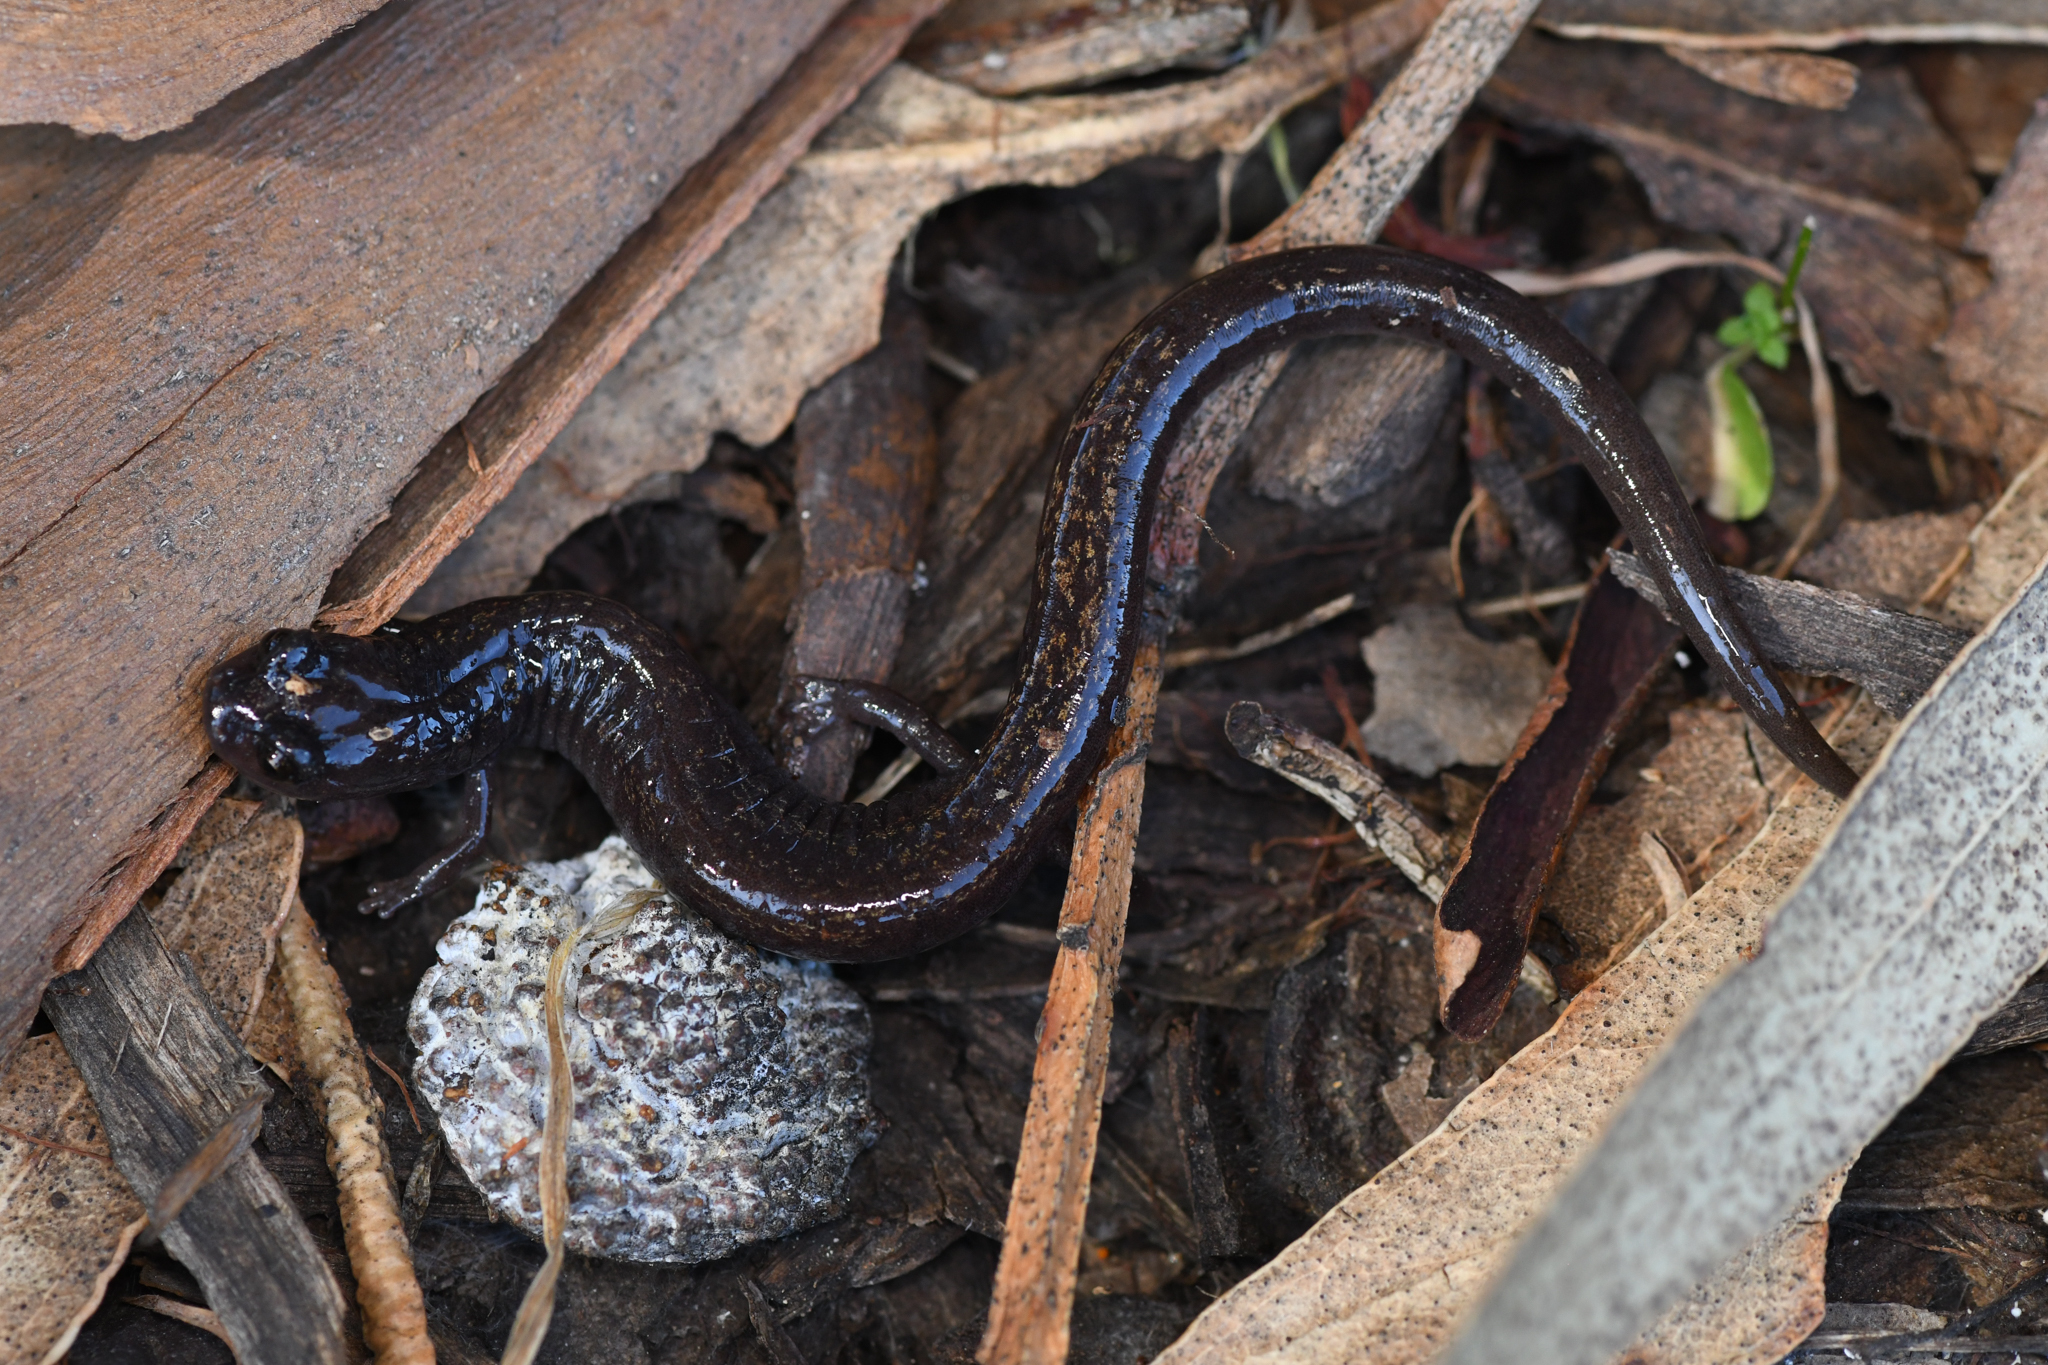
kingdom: Animalia
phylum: Chordata
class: Amphibia
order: Caudata
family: Plethodontidae
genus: Batrachoseps
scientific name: Batrachoseps pacificus
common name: Channel islands slender salamander
